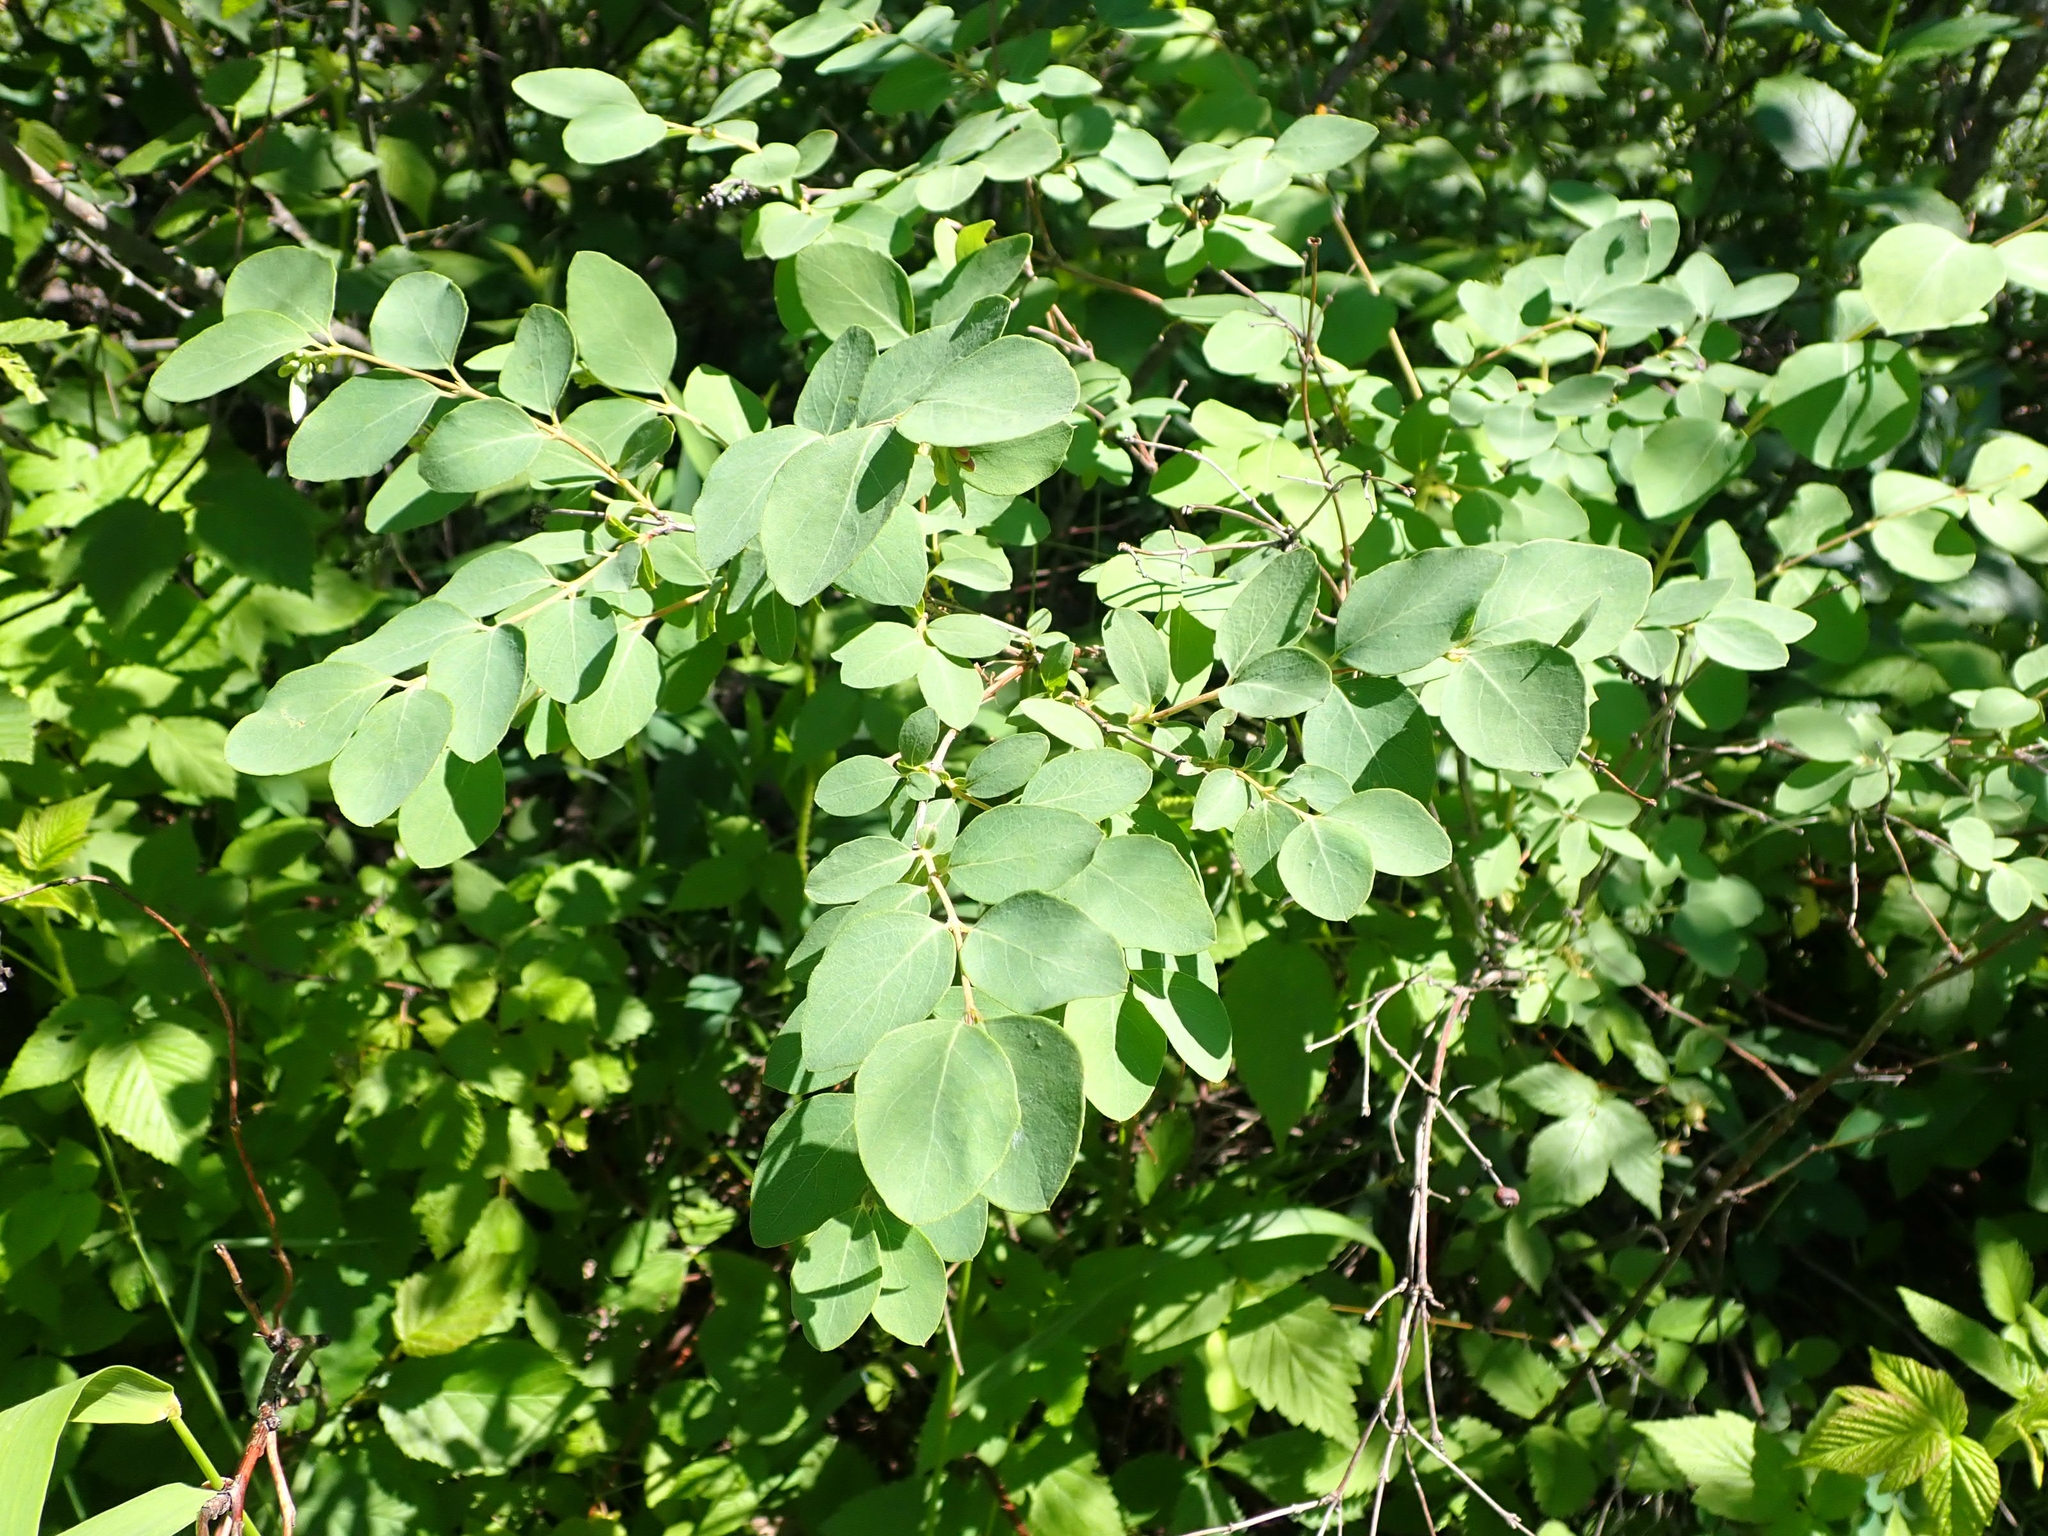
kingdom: Plantae
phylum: Tracheophyta
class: Magnoliopsida
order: Dipsacales
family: Caprifoliaceae
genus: Symphoricarpos
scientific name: Symphoricarpos occidentalis
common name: Wolfberry
